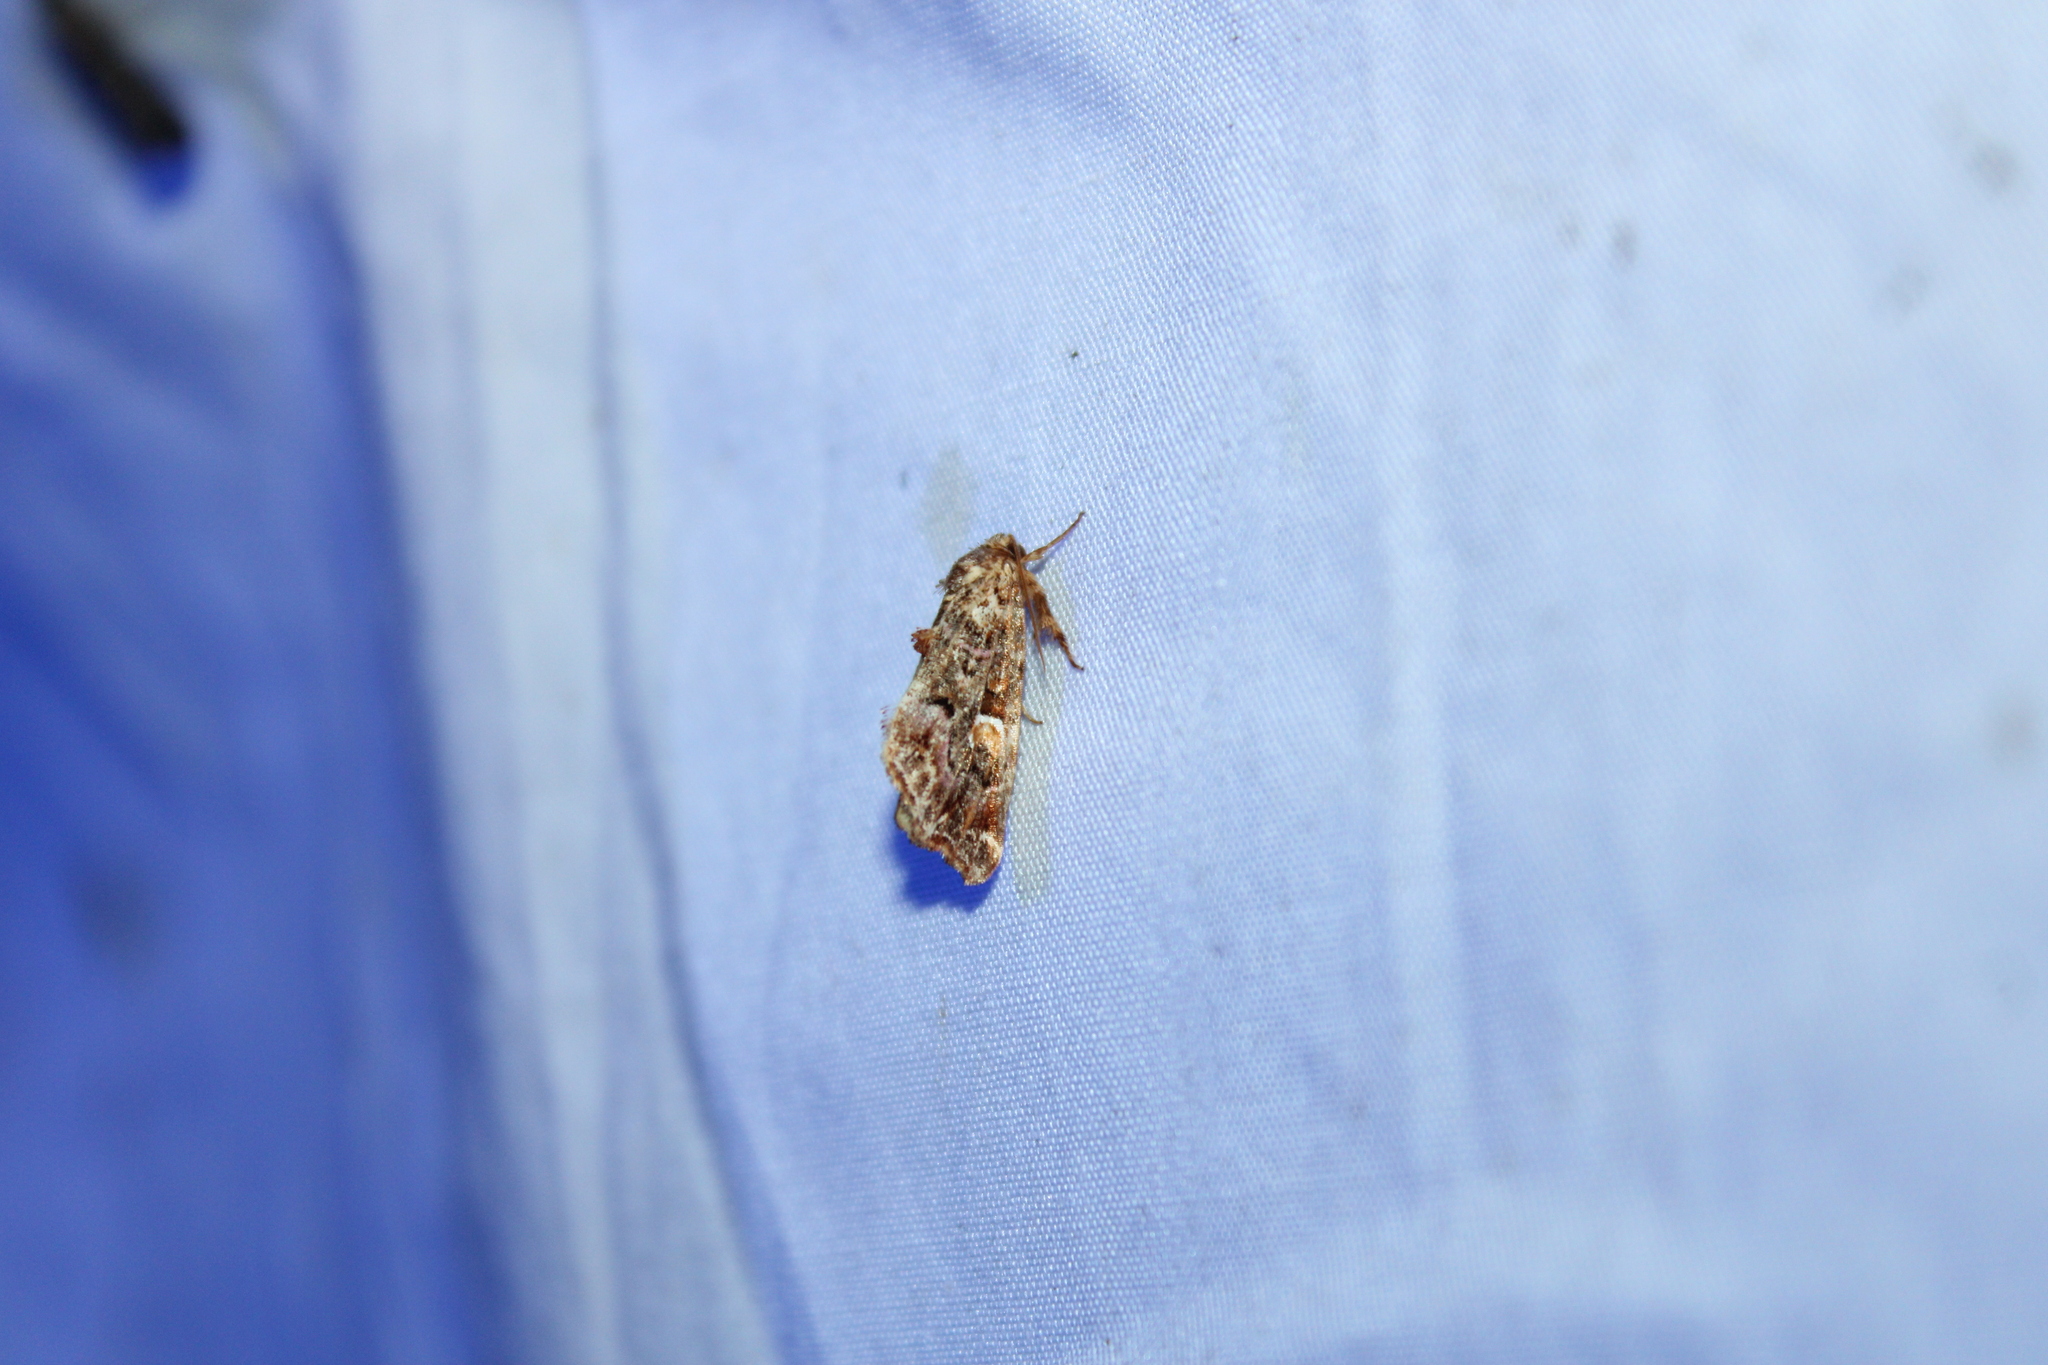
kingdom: Animalia
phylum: Arthropoda
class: Insecta
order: Lepidoptera
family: Noctuidae
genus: Callopistria
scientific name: Callopistria mollissima
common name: Pink-shaded fern moth
